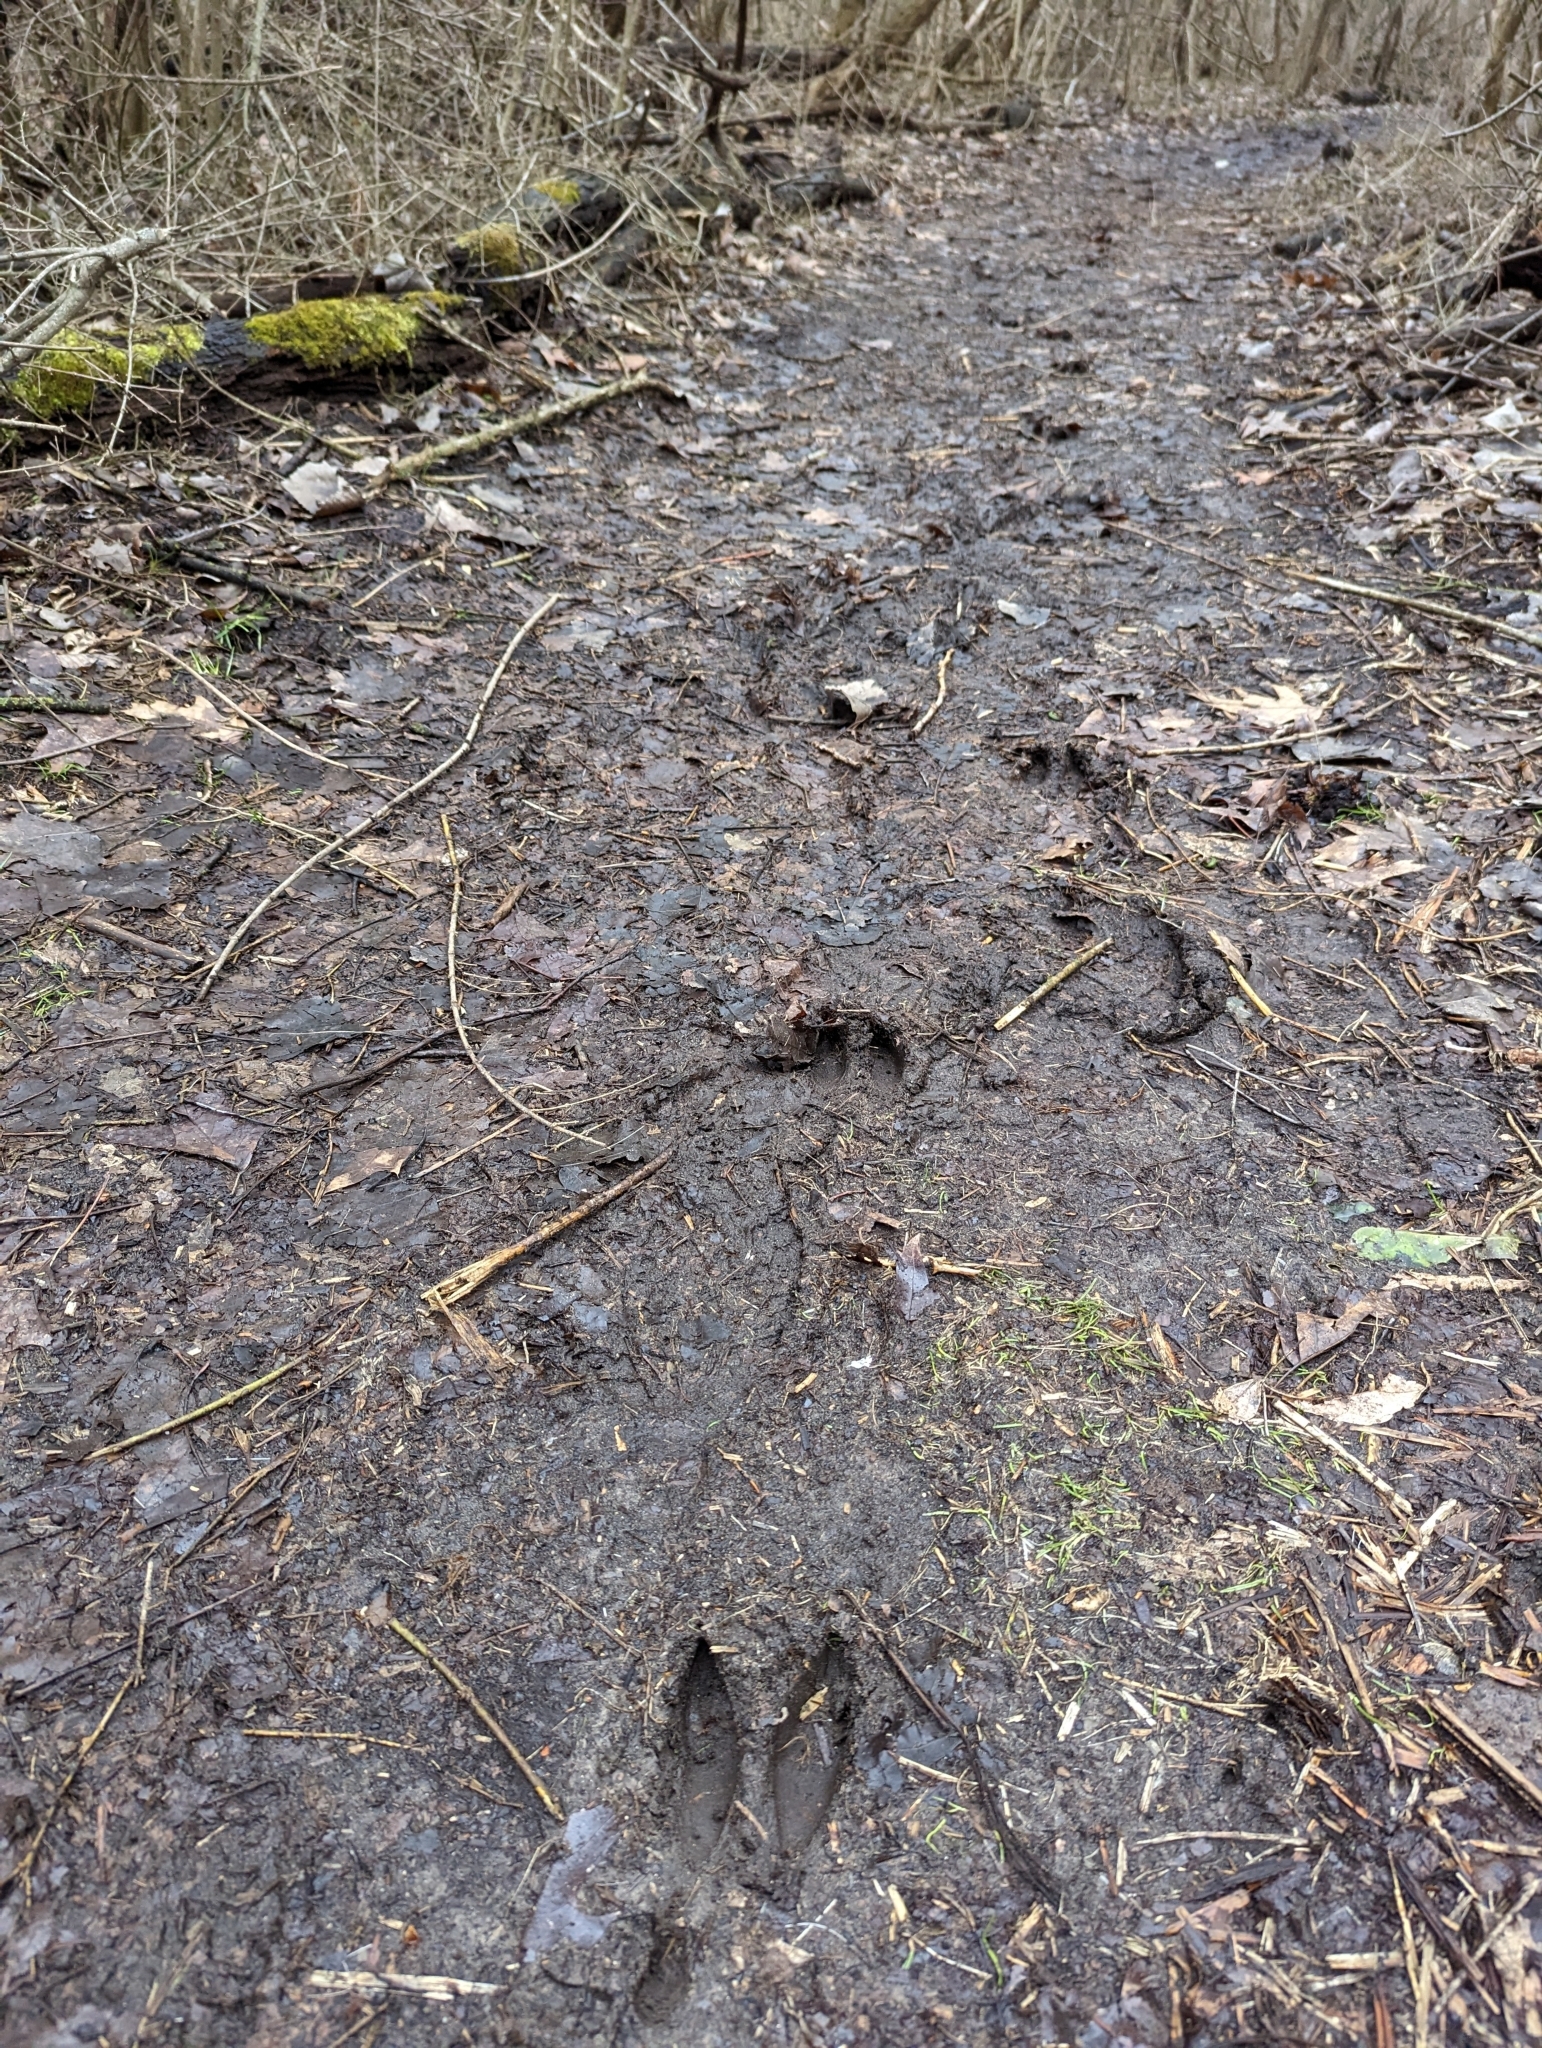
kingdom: Animalia
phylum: Chordata
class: Mammalia
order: Artiodactyla
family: Cervidae
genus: Odocoileus
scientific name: Odocoileus virginianus
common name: White-tailed deer
